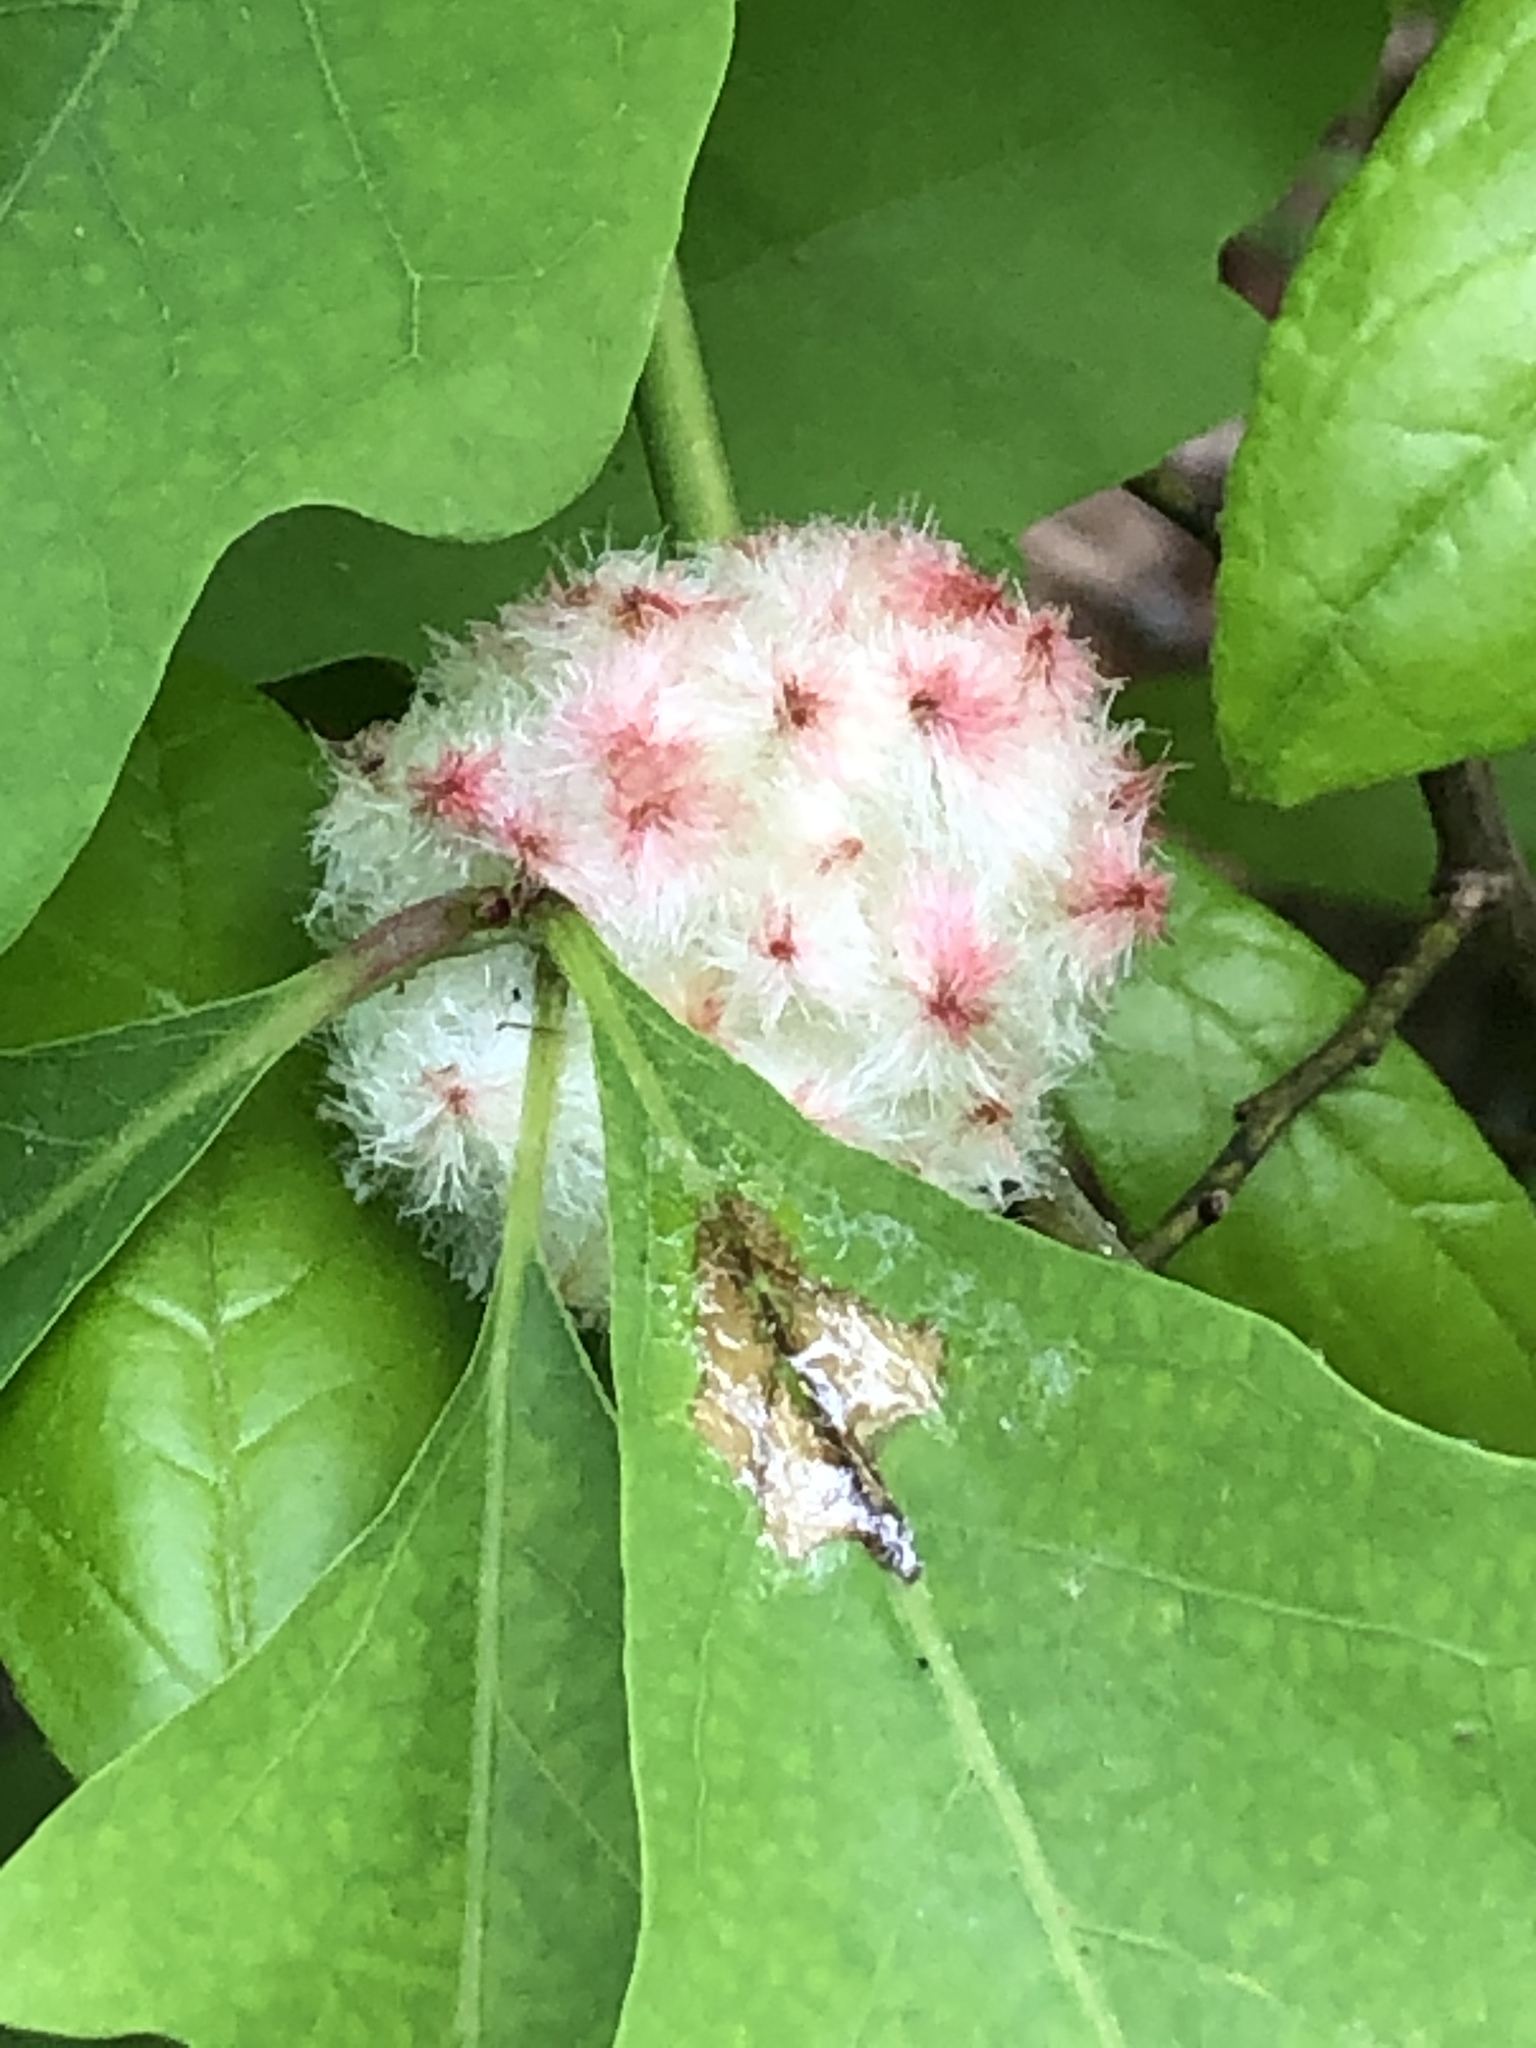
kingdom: Animalia
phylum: Arthropoda
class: Insecta
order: Hymenoptera
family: Cynipidae
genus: Callirhytis
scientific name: Callirhytis
